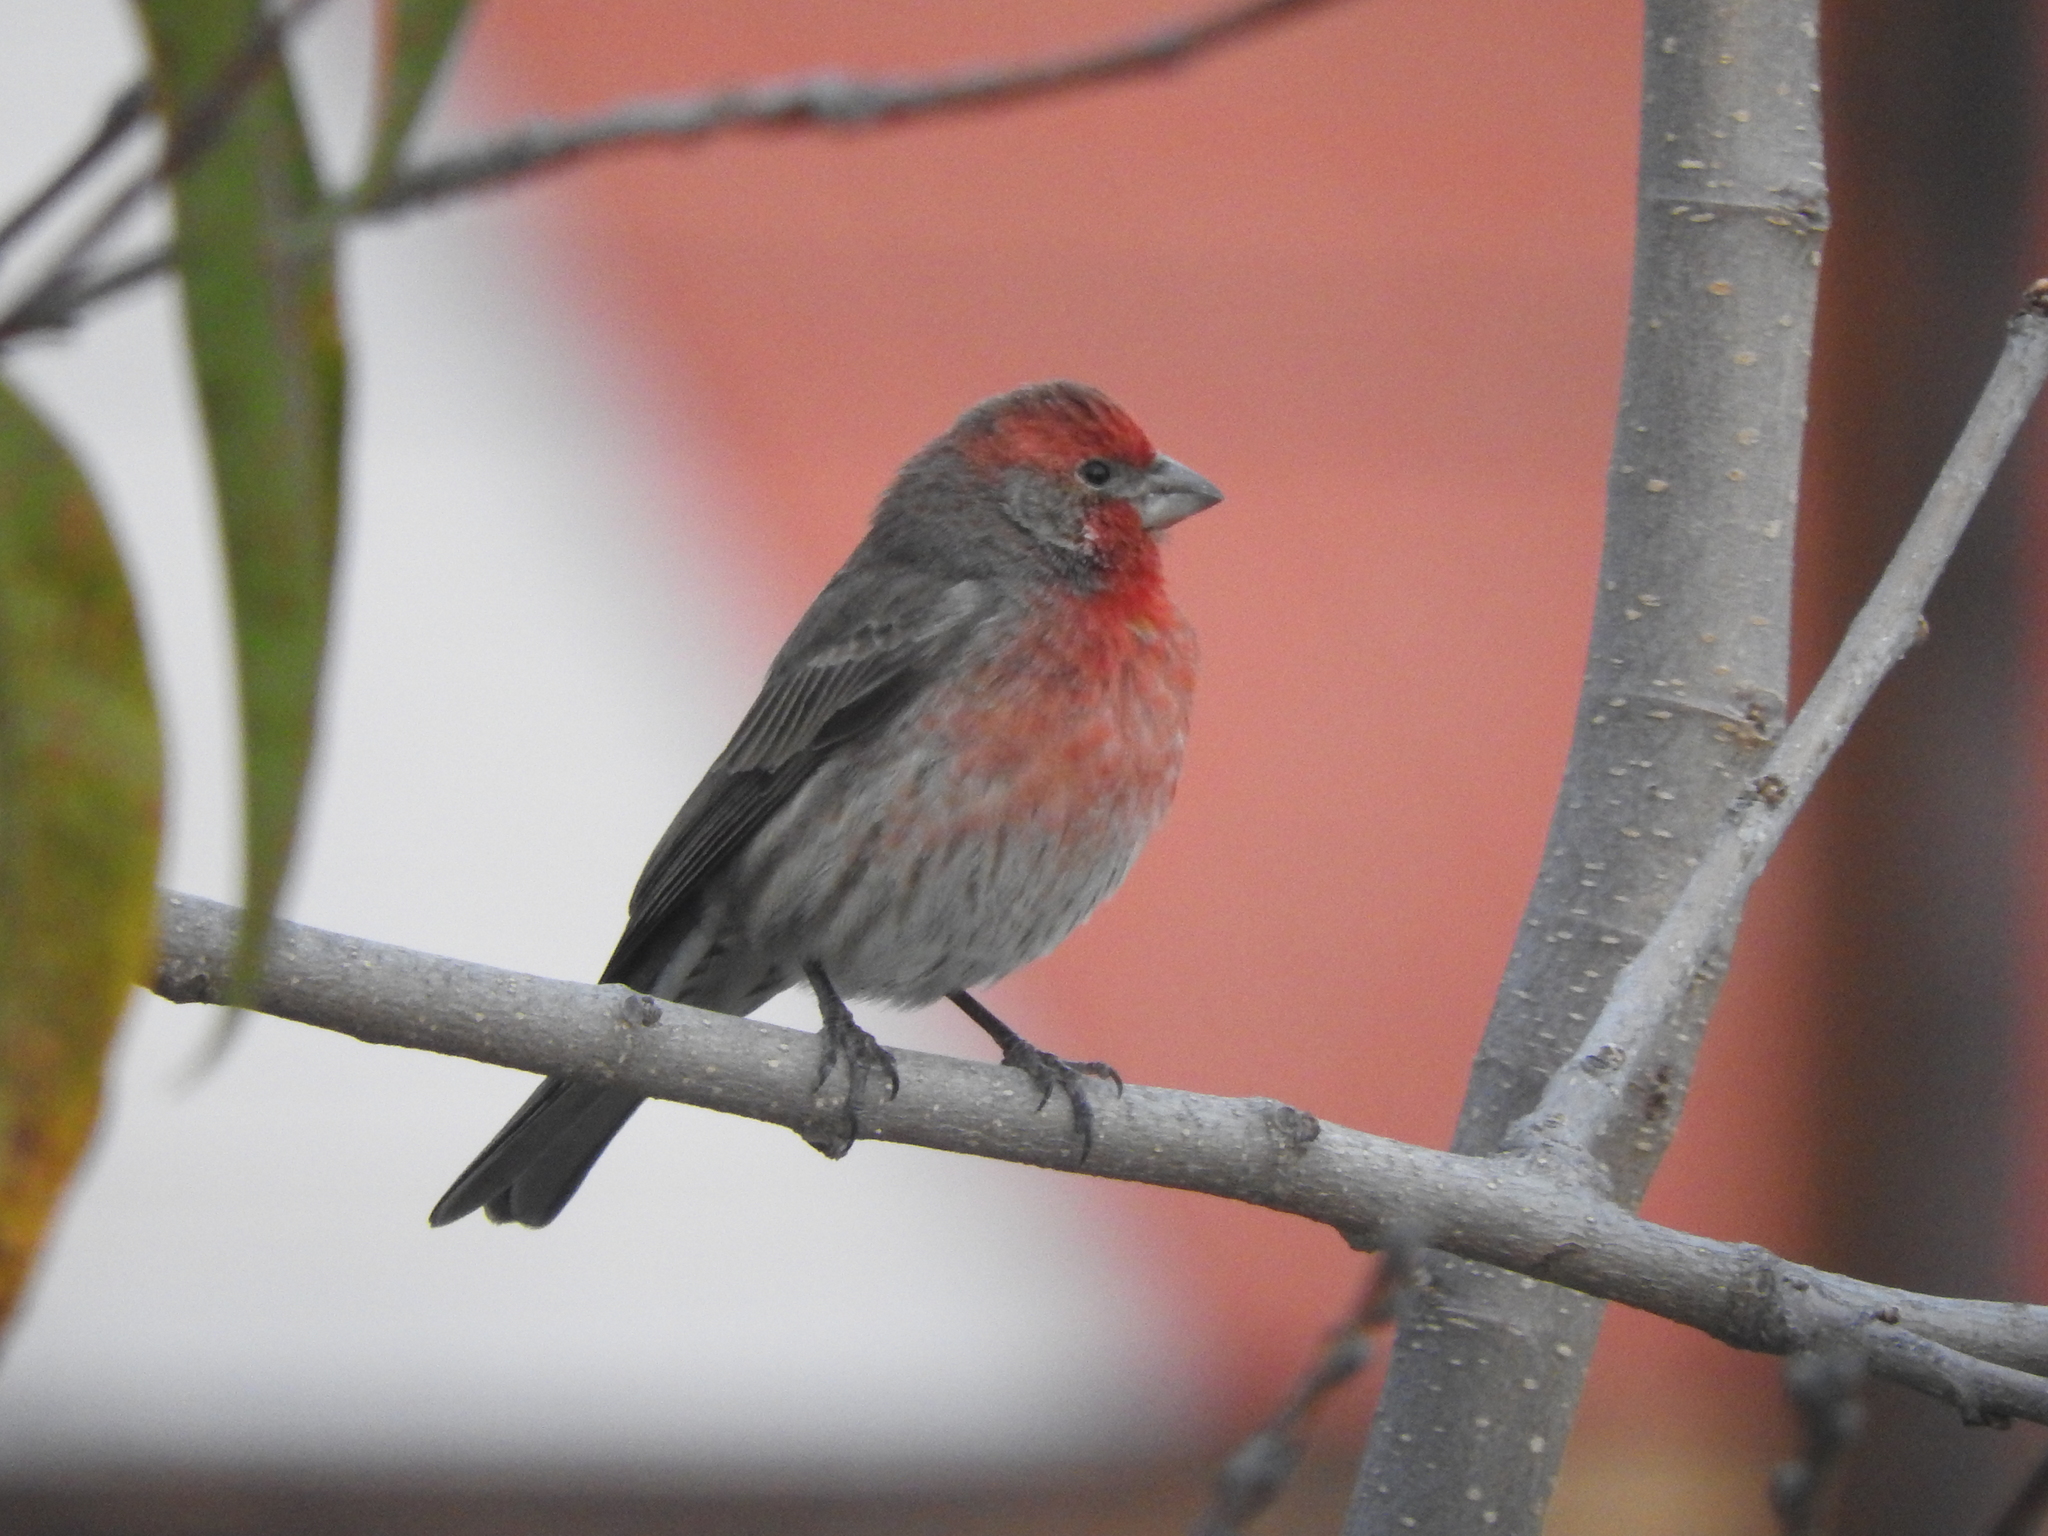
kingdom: Animalia
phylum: Chordata
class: Aves
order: Passeriformes
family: Fringillidae
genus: Haemorhous
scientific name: Haemorhous mexicanus
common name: House finch
